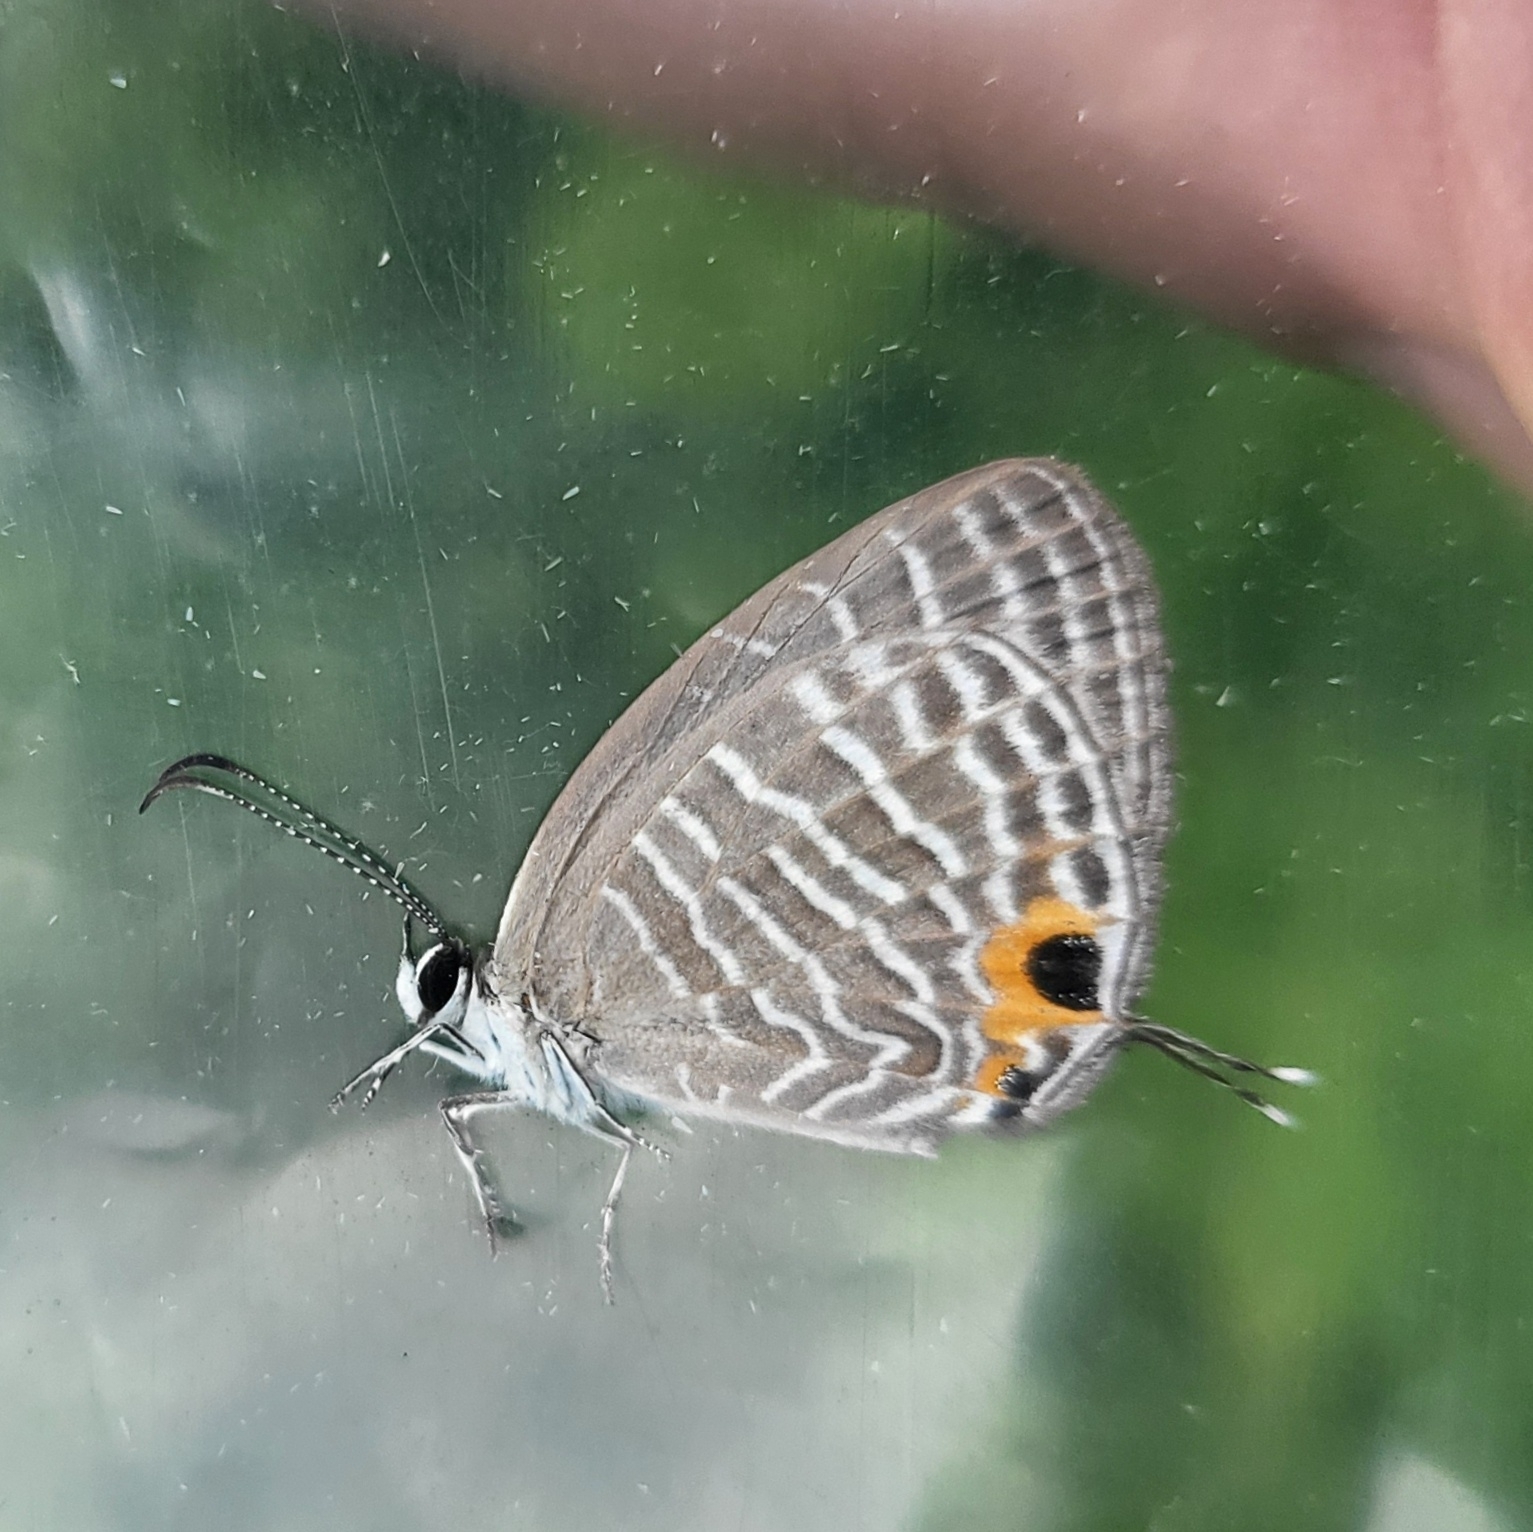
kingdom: Animalia
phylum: Arthropoda
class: Insecta
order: Lepidoptera
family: Lycaenidae
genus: Jamides
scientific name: Jamides celeno
